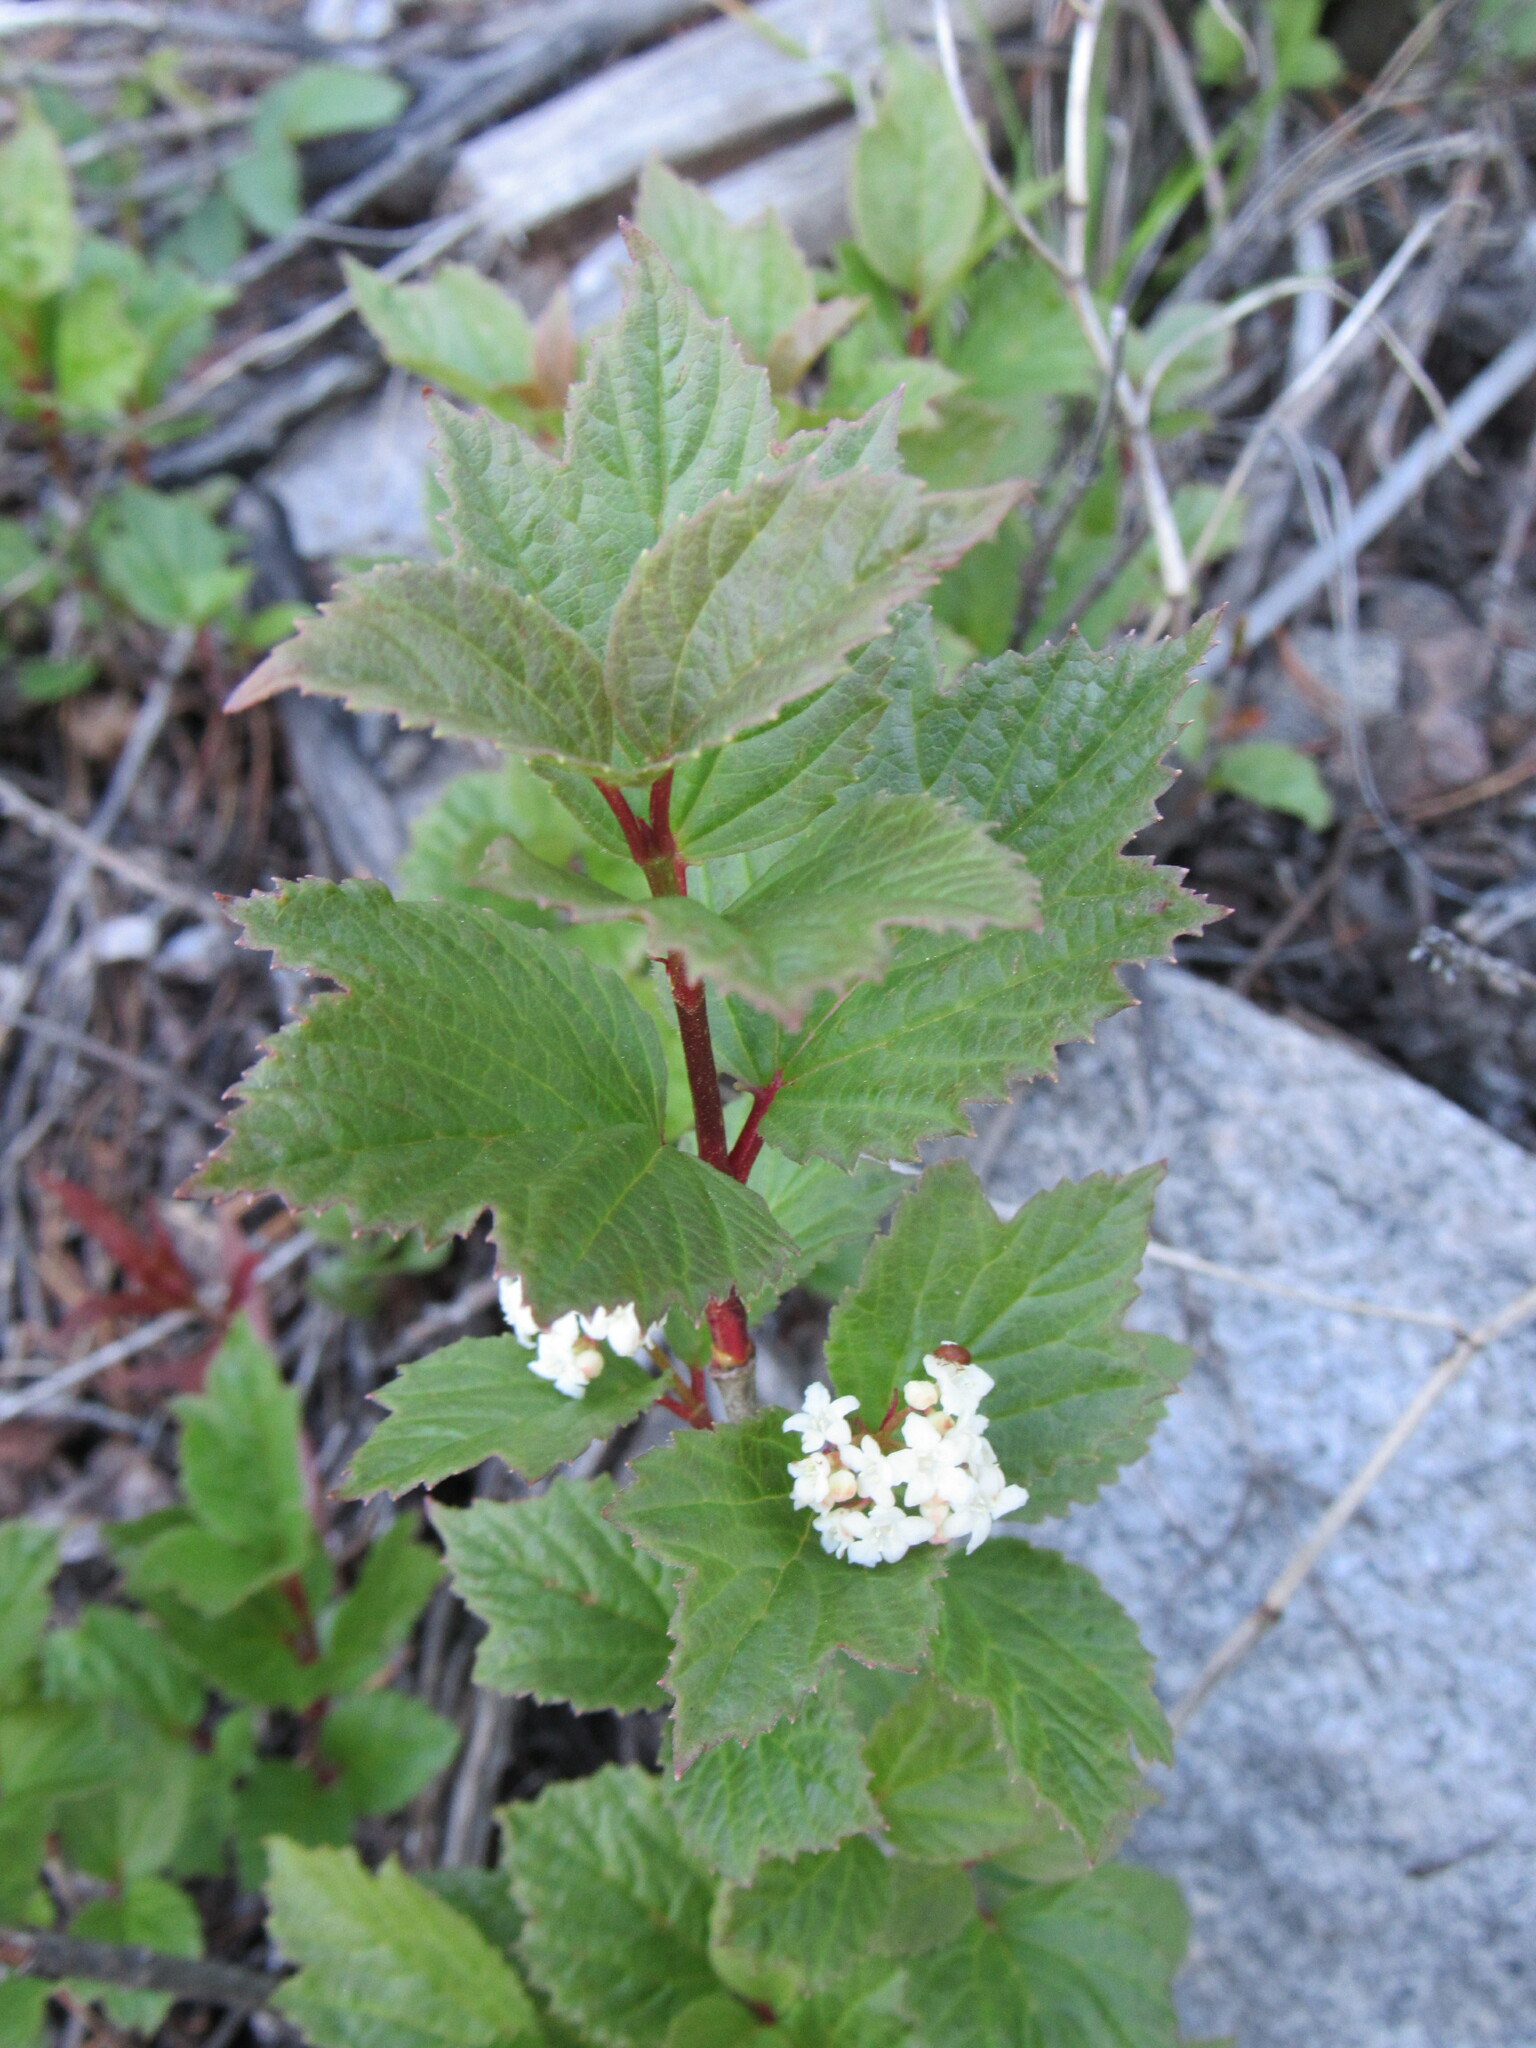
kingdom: Plantae
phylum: Tracheophyta
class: Magnoliopsida
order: Dipsacales
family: Viburnaceae
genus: Viburnum
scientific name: Viburnum edule
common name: Mooseberry
